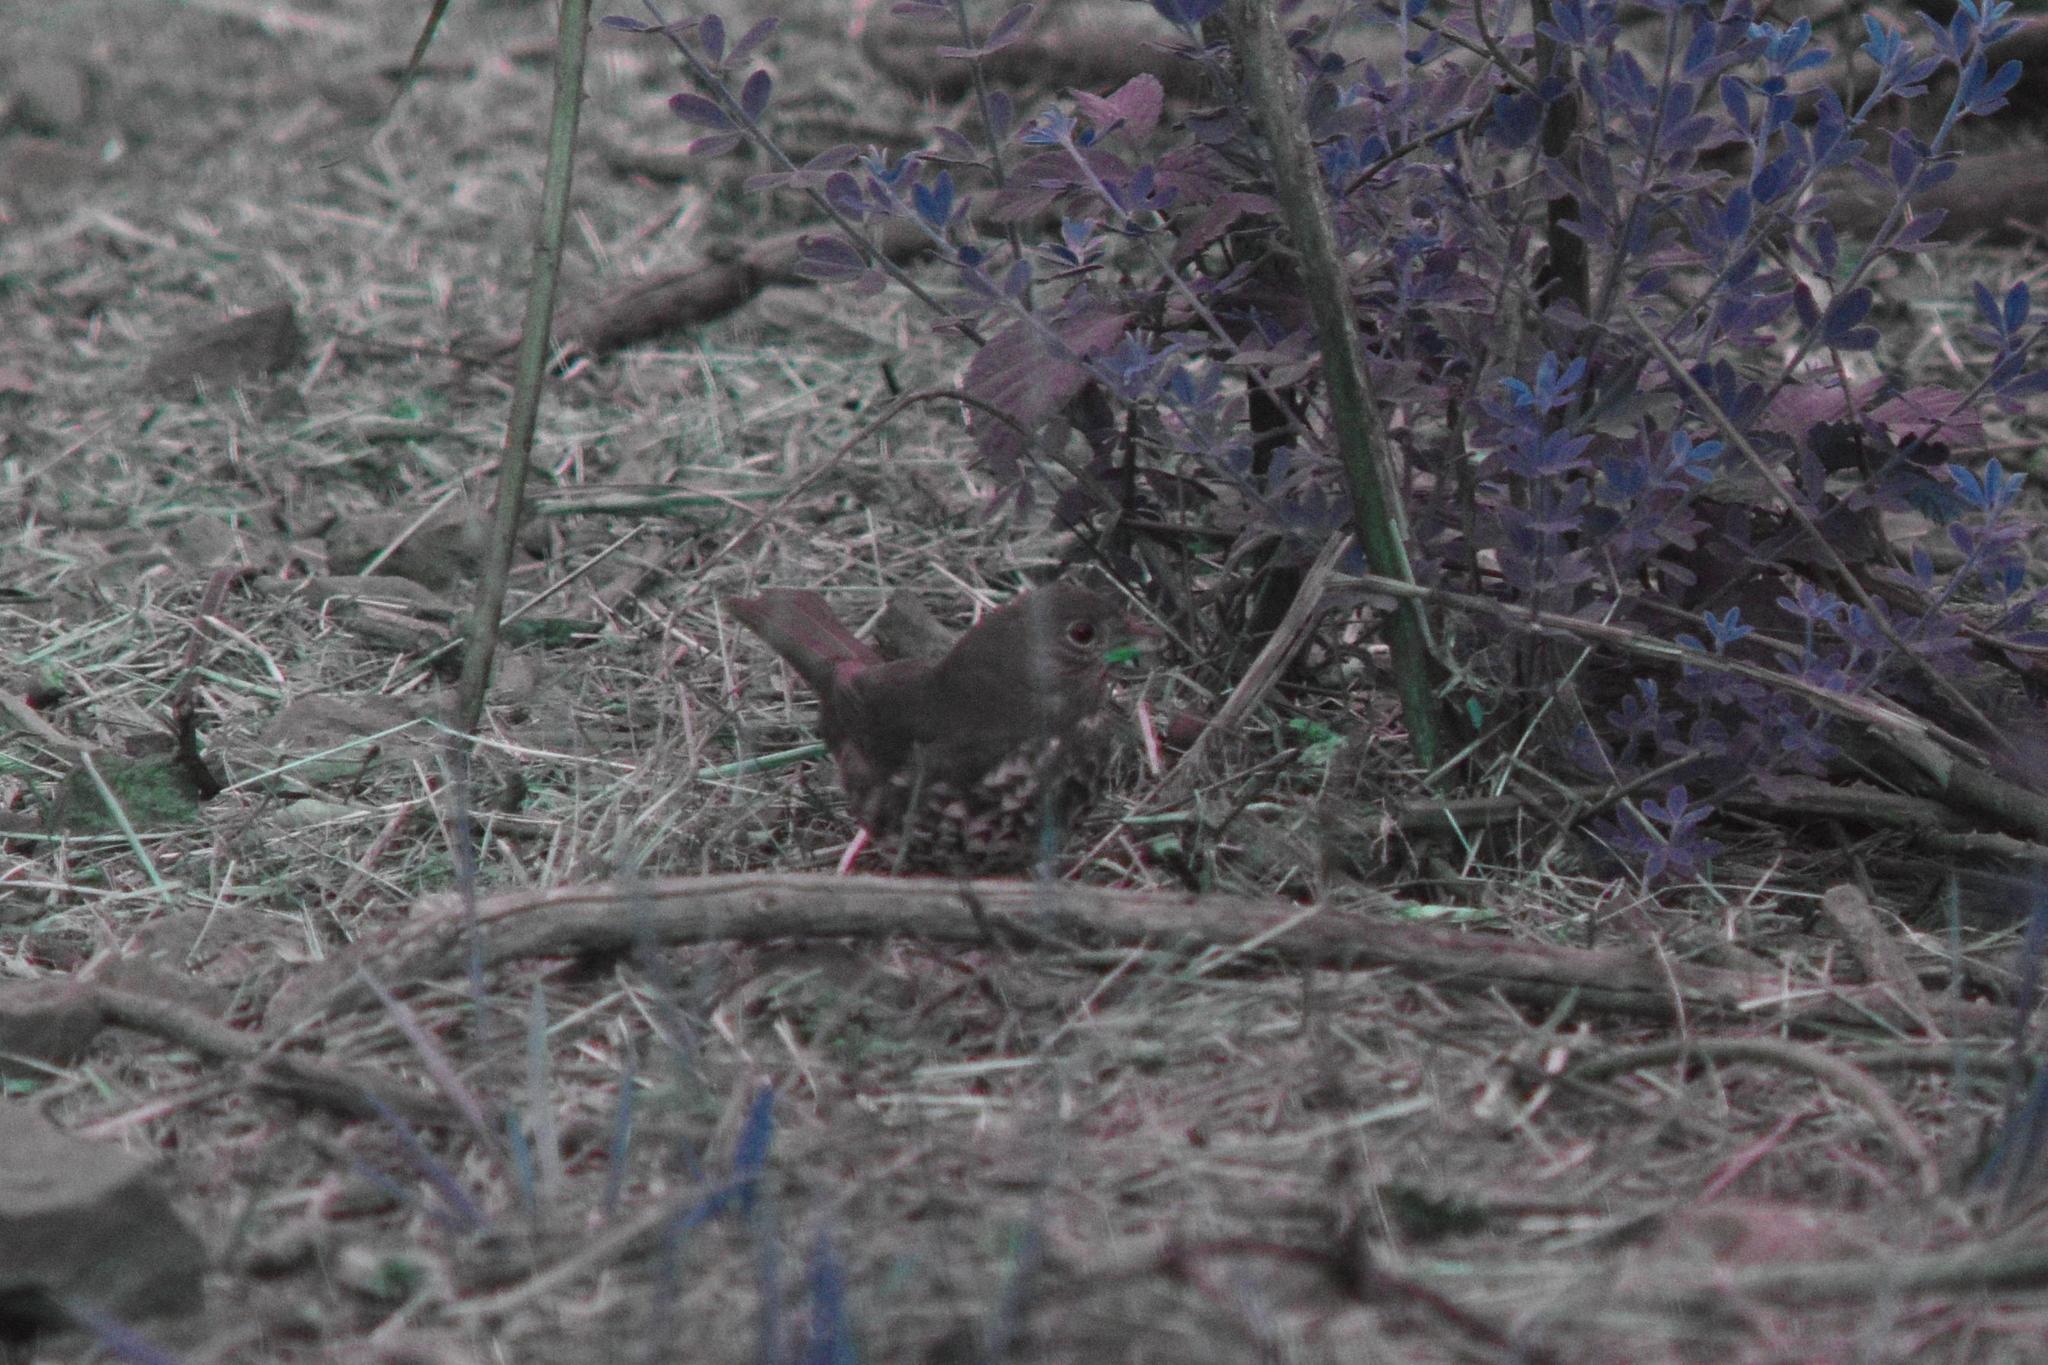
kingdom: Animalia
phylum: Chordata
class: Aves
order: Passeriformes
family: Passerellidae
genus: Passerella
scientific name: Passerella iliaca
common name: Fox sparrow
